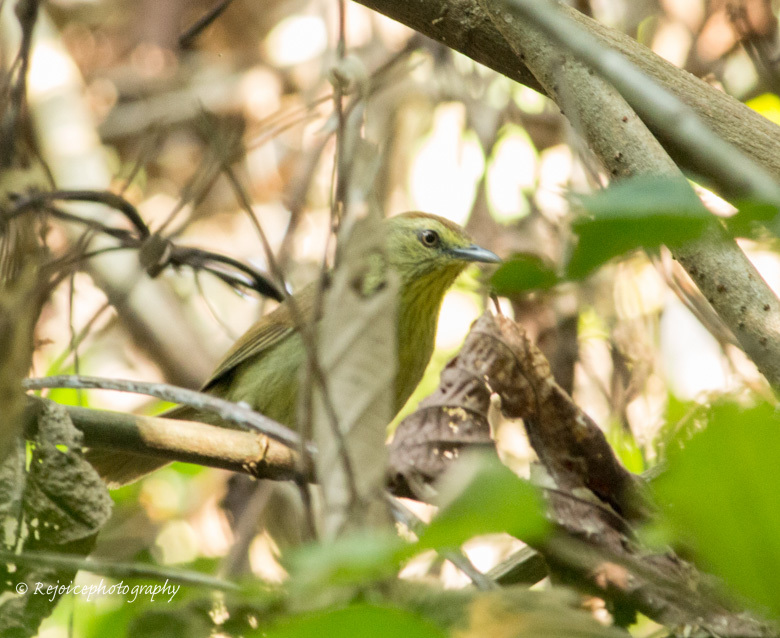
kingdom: Animalia
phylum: Chordata
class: Aves
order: Passeriformes
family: Timaliidae
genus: Macronus
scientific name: Macronus gularis
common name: Striped tit-babbler
